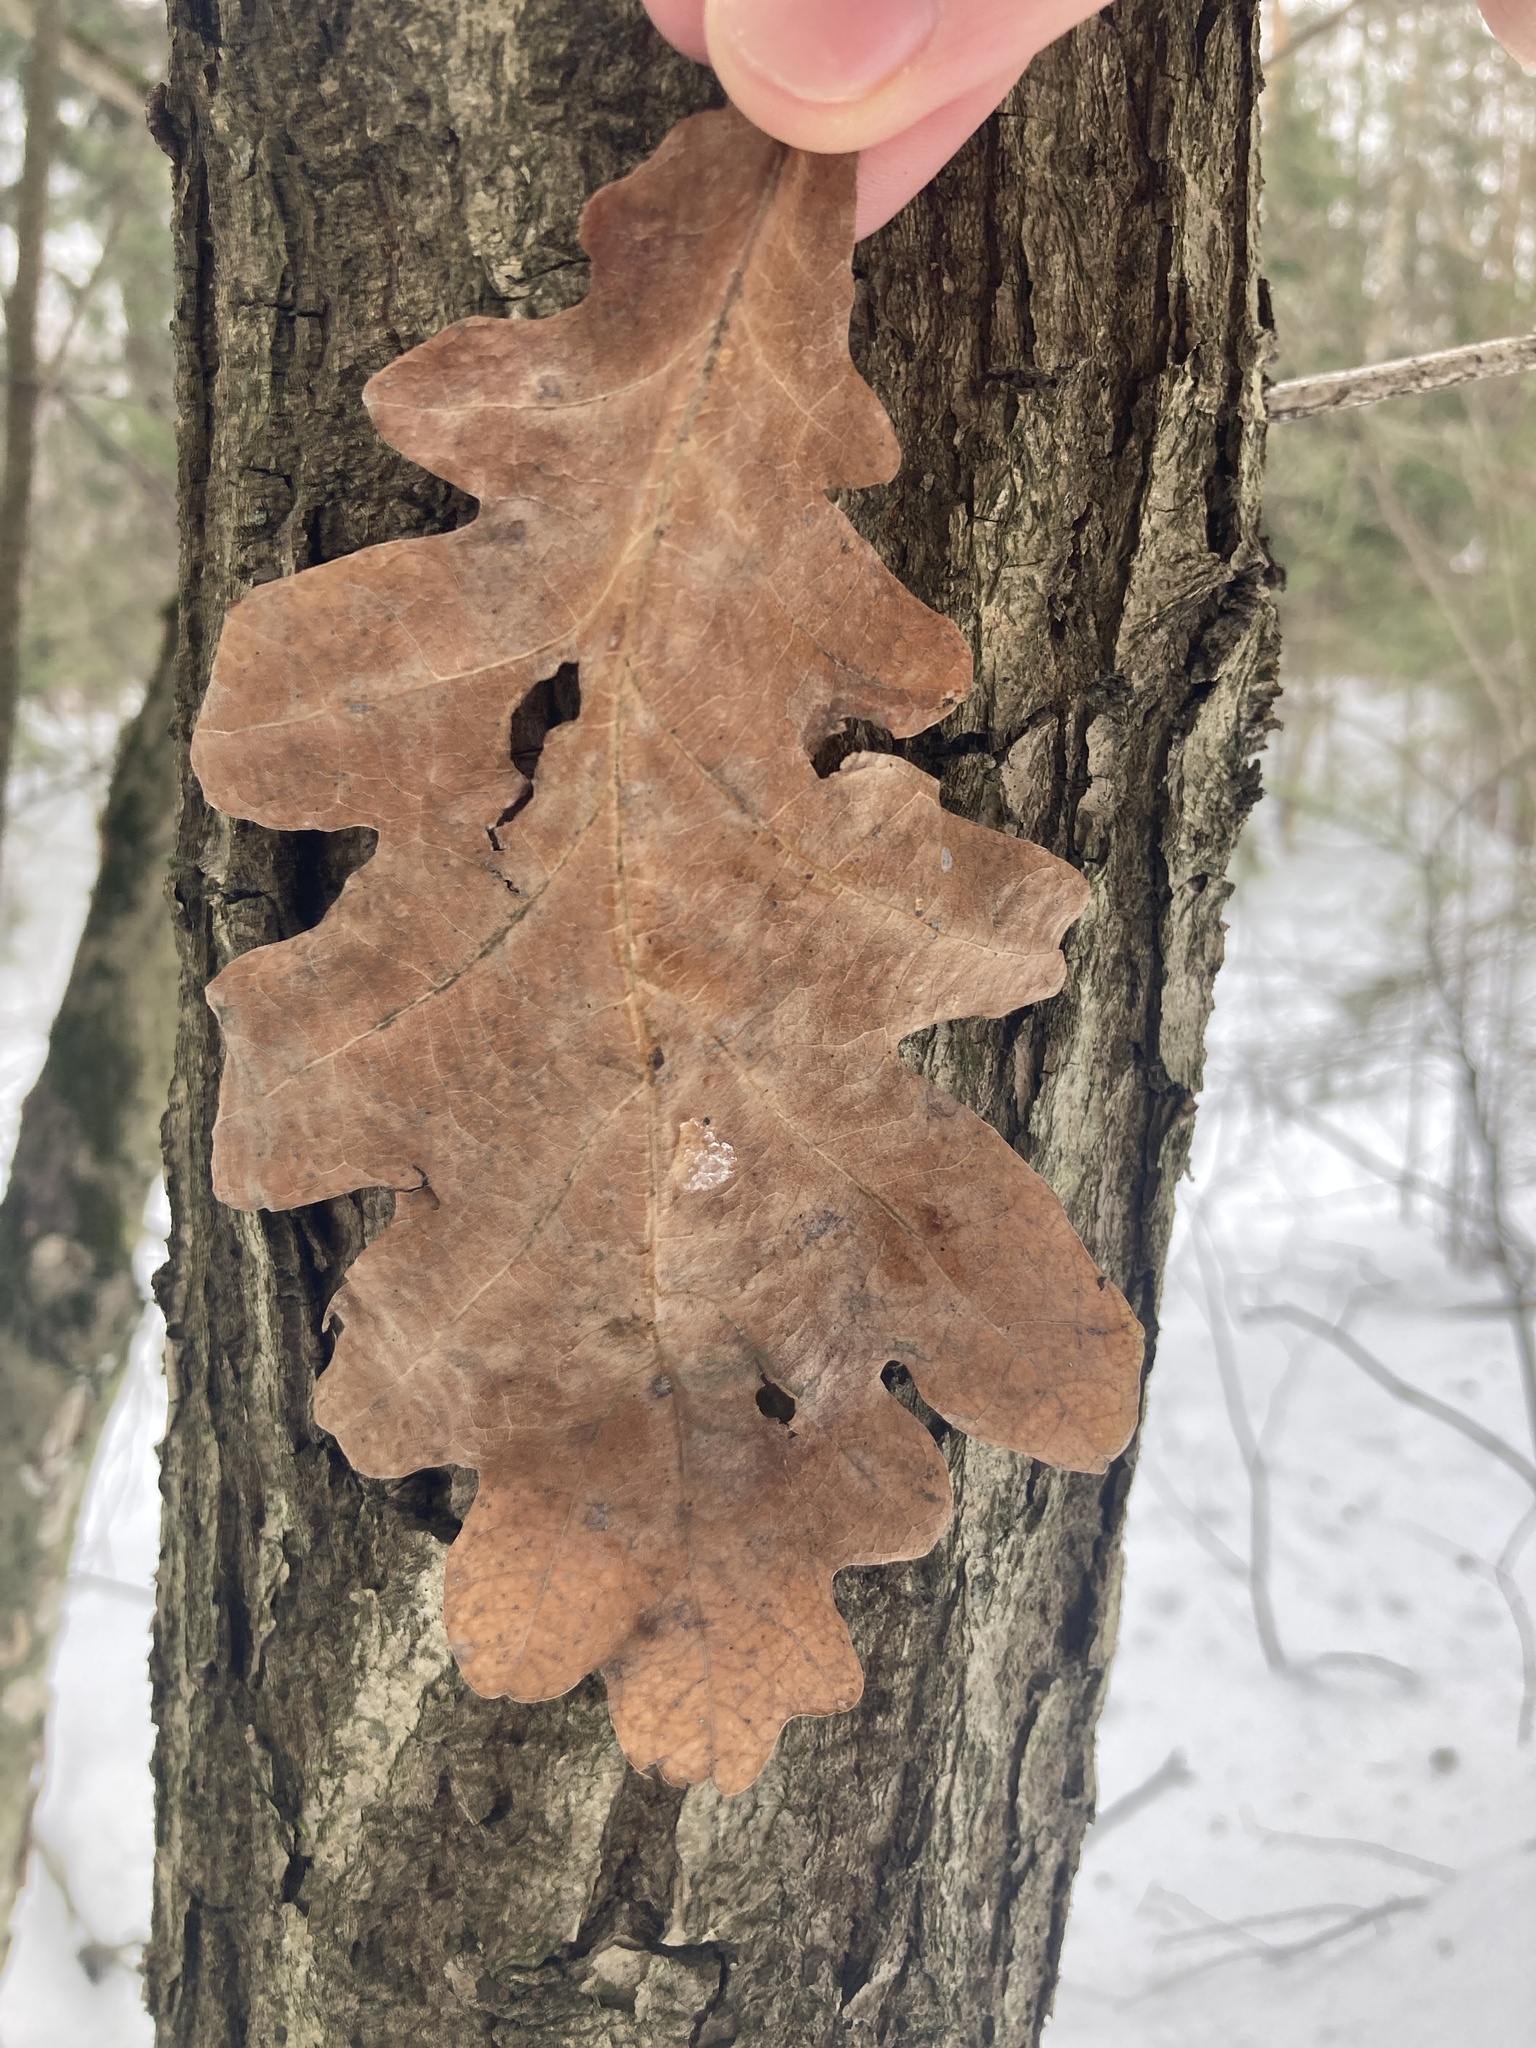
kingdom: Plantae
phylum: Tracheophyta
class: Magnoliopsida
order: Fagales
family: Fagaceae
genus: Quercus
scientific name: Quercus robur
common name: Pedunculate oak
